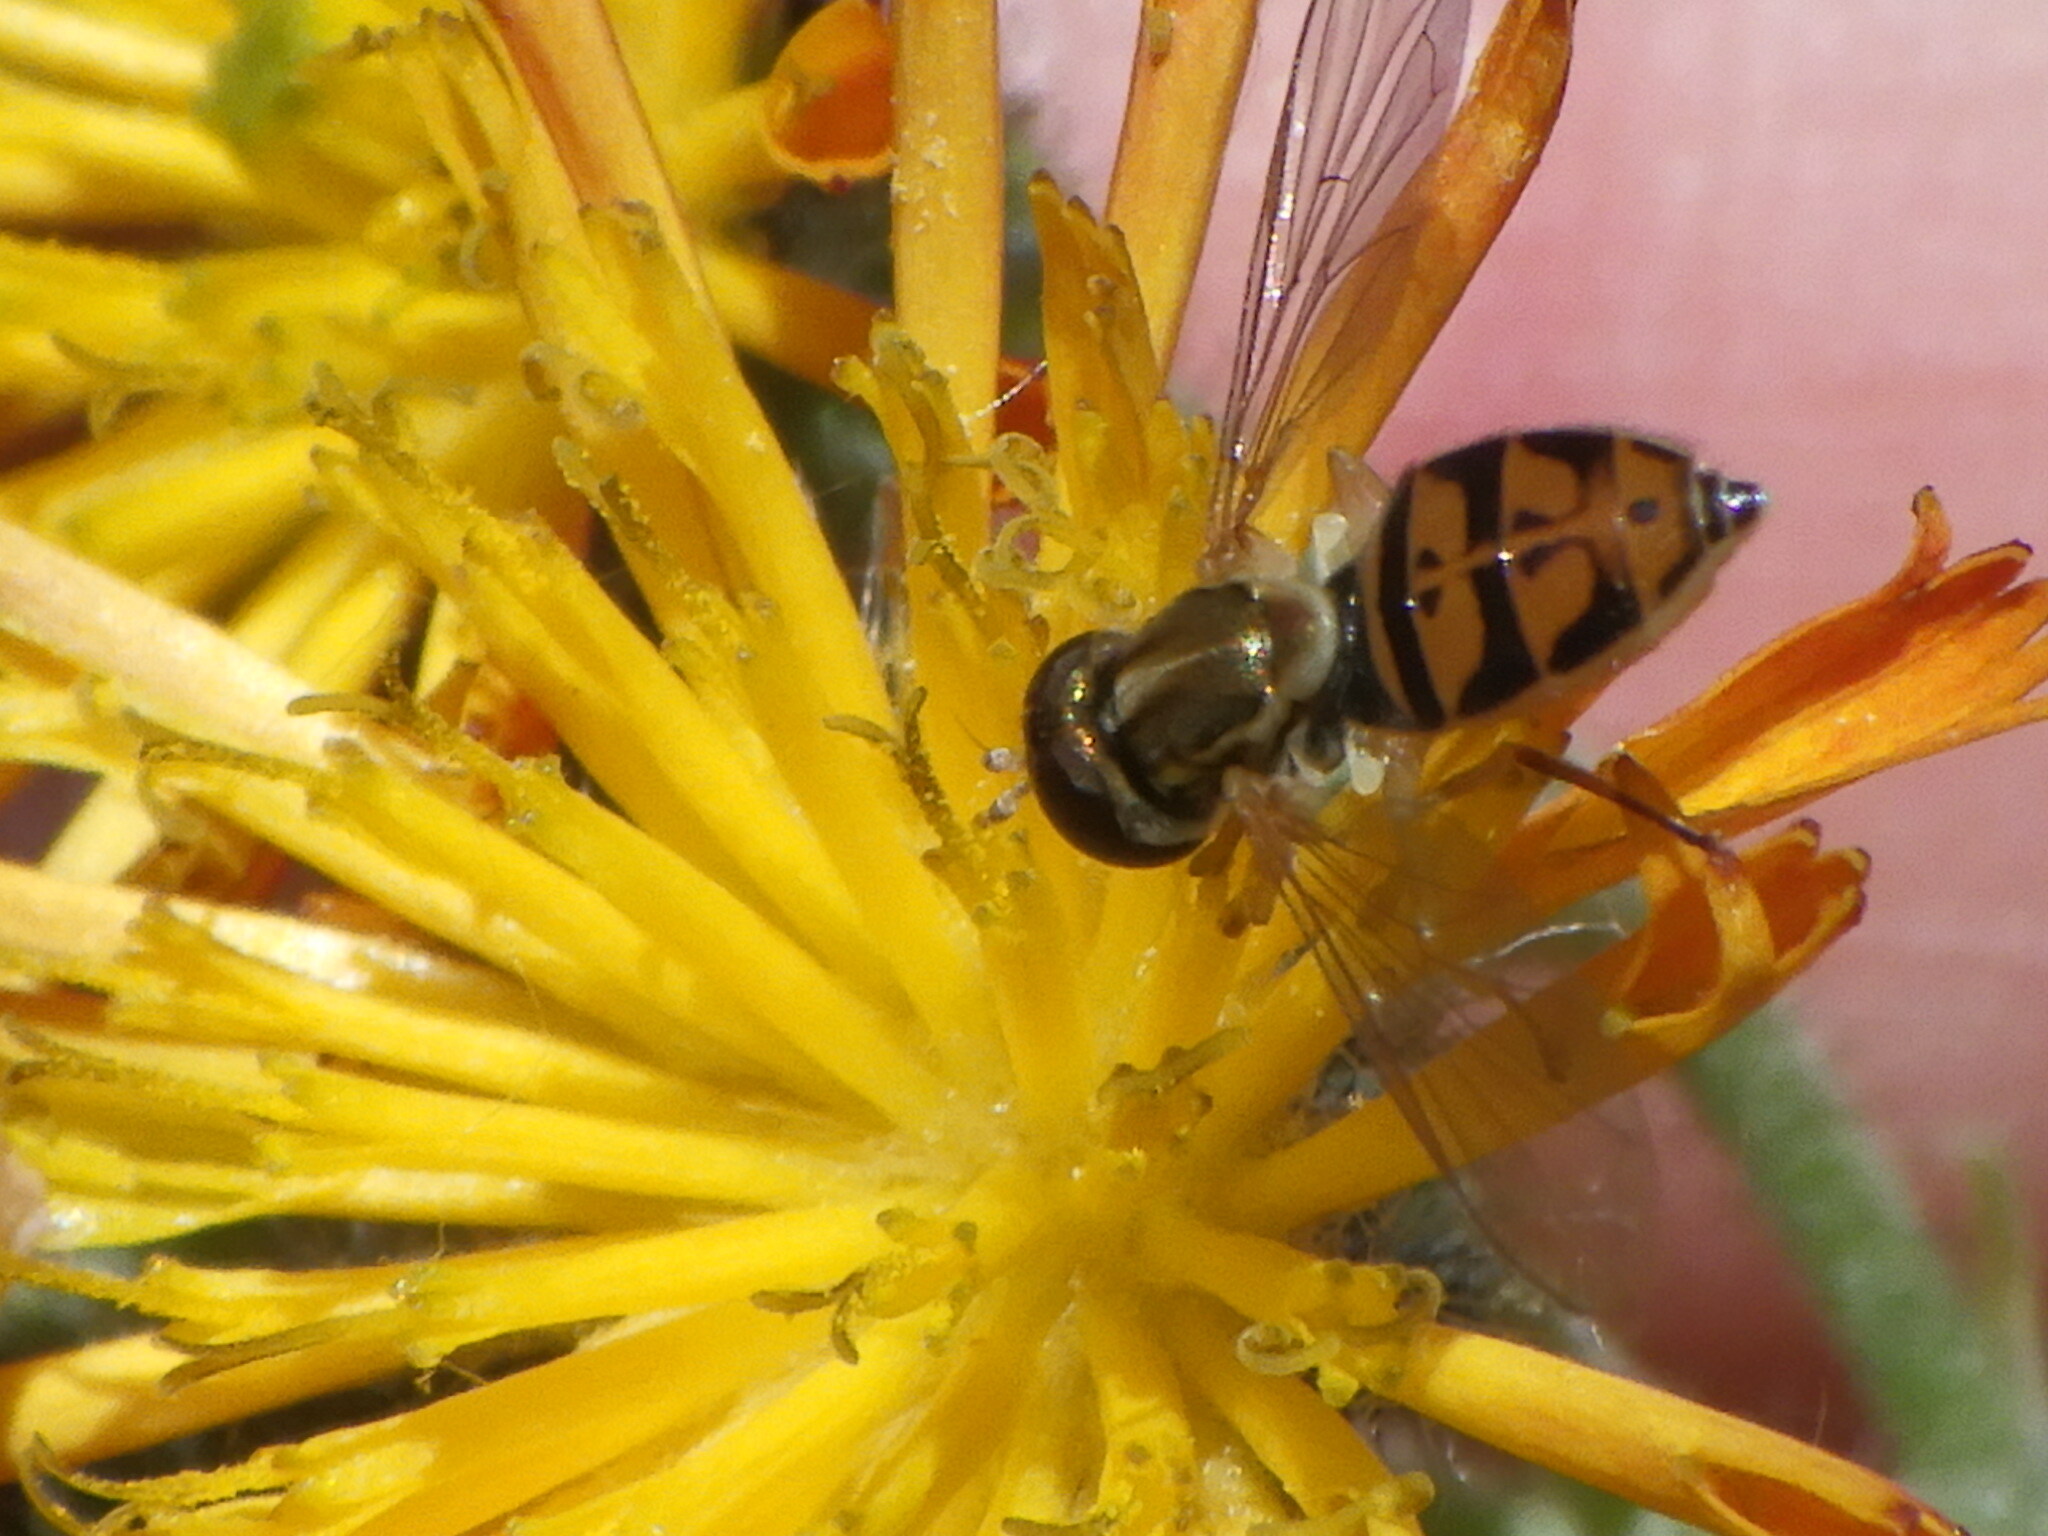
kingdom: Animalia
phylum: Arthropoda
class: Insecta
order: Diptera
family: Syrphidae
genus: Toxomerus
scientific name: Toxomerus marginatus
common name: Syrphid fly
